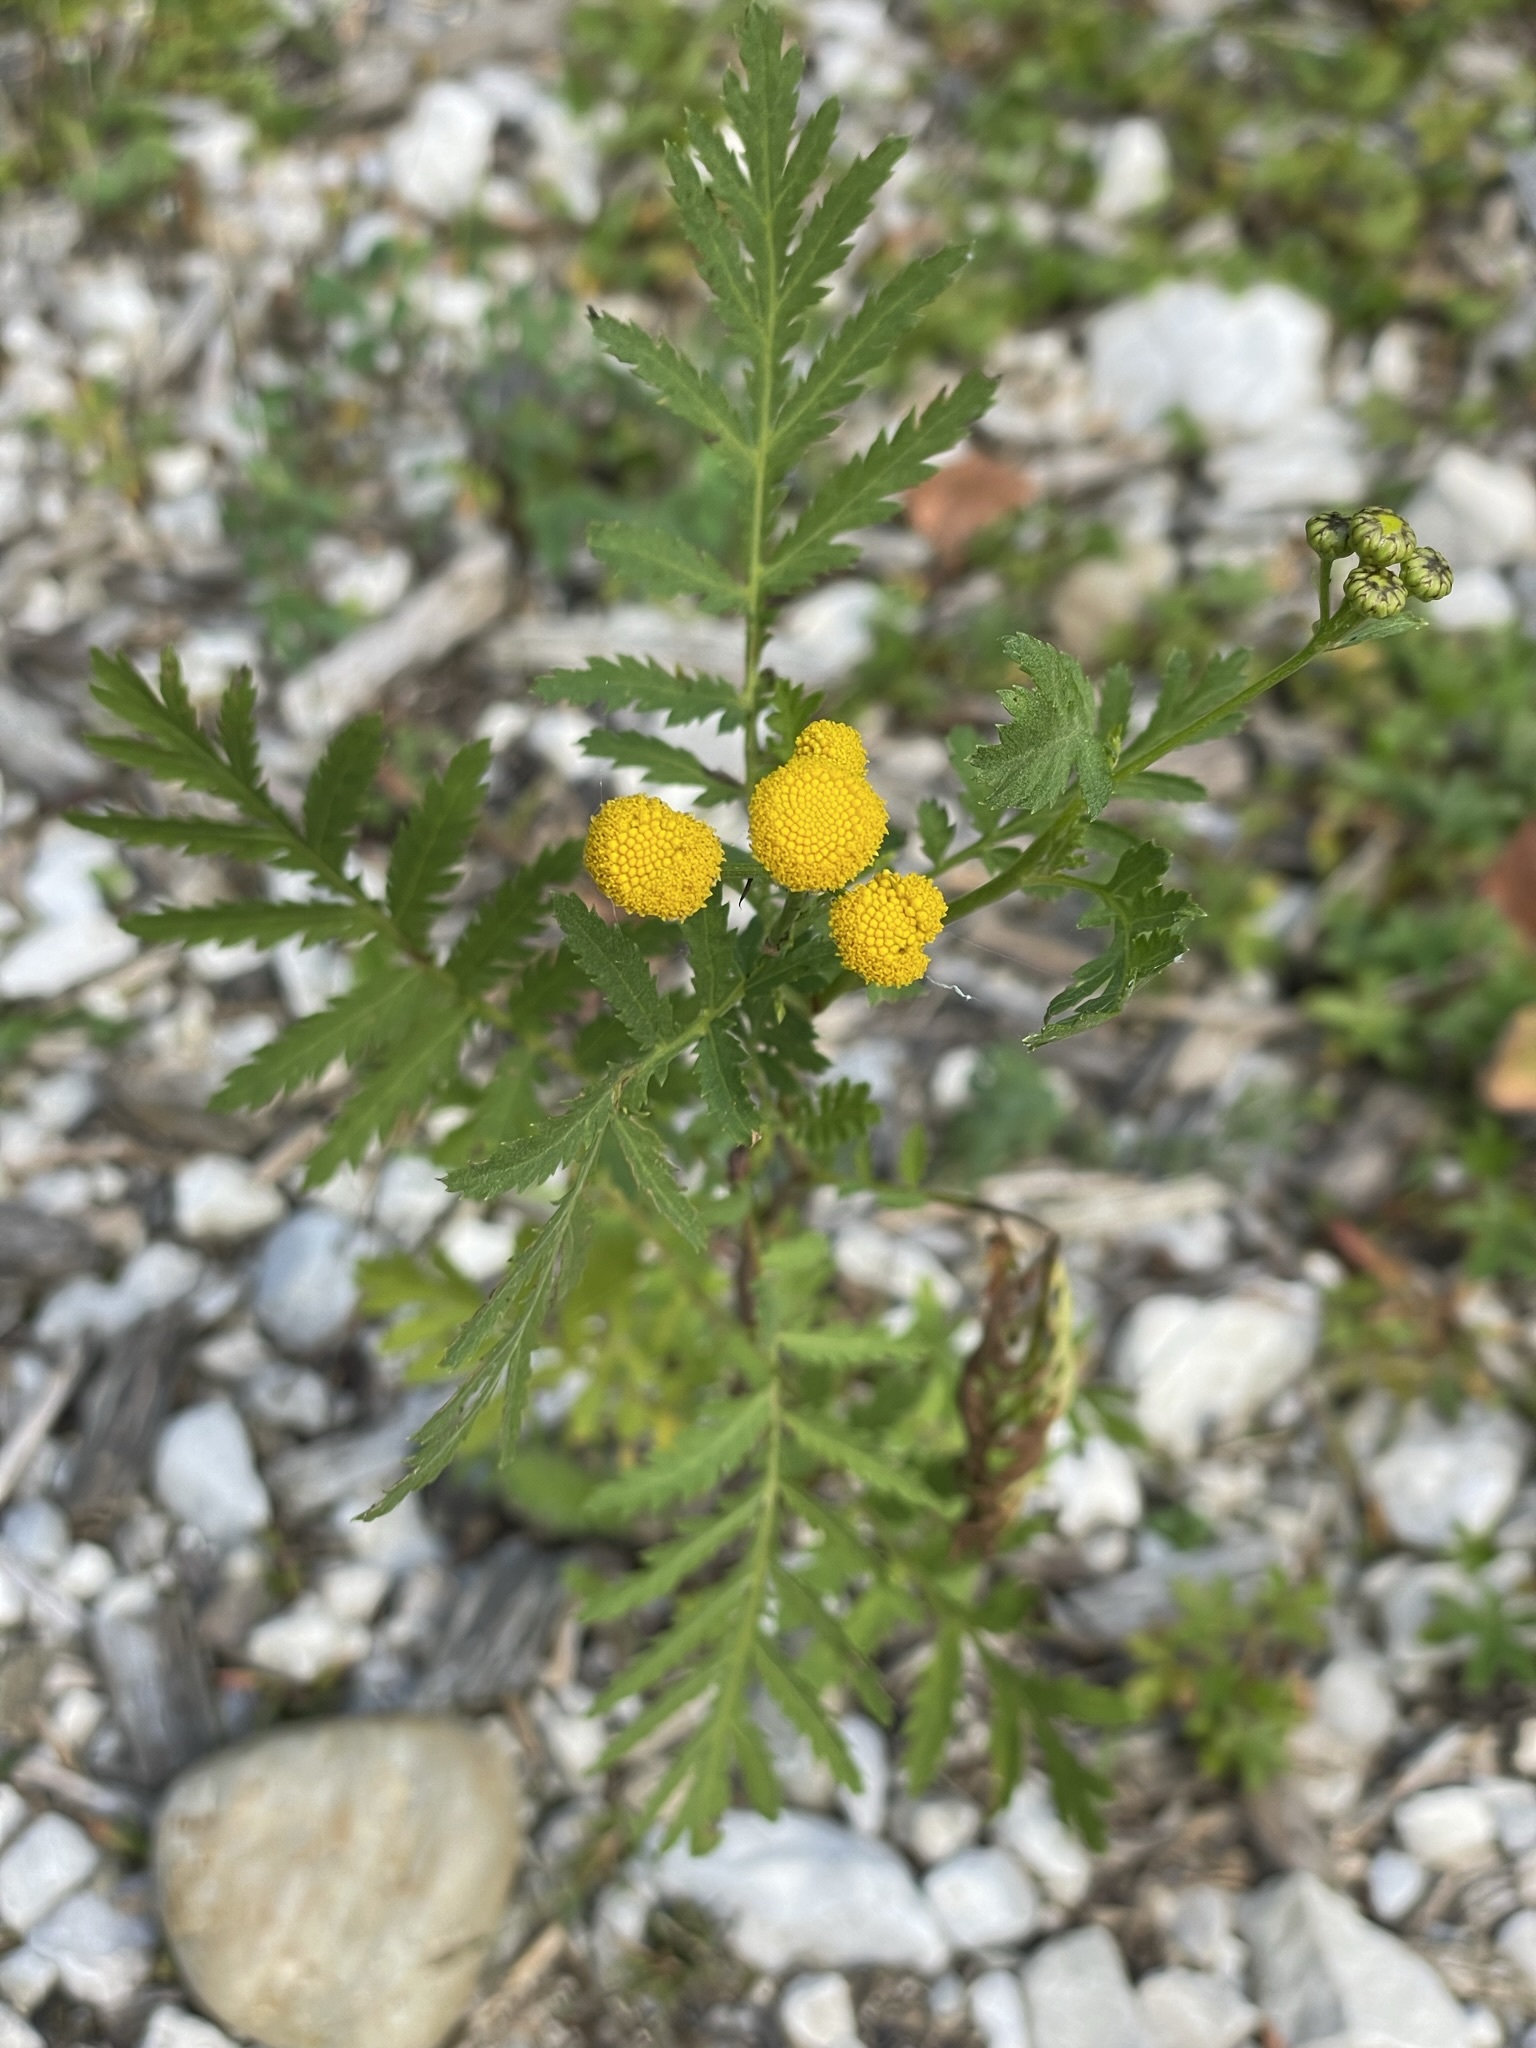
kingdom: Plantae
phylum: Tracheophyta
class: Magnoliopsida
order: Asterales
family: Asteraceae
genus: Tanacetum
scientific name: Tanacetum vulgare
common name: Common tansy
